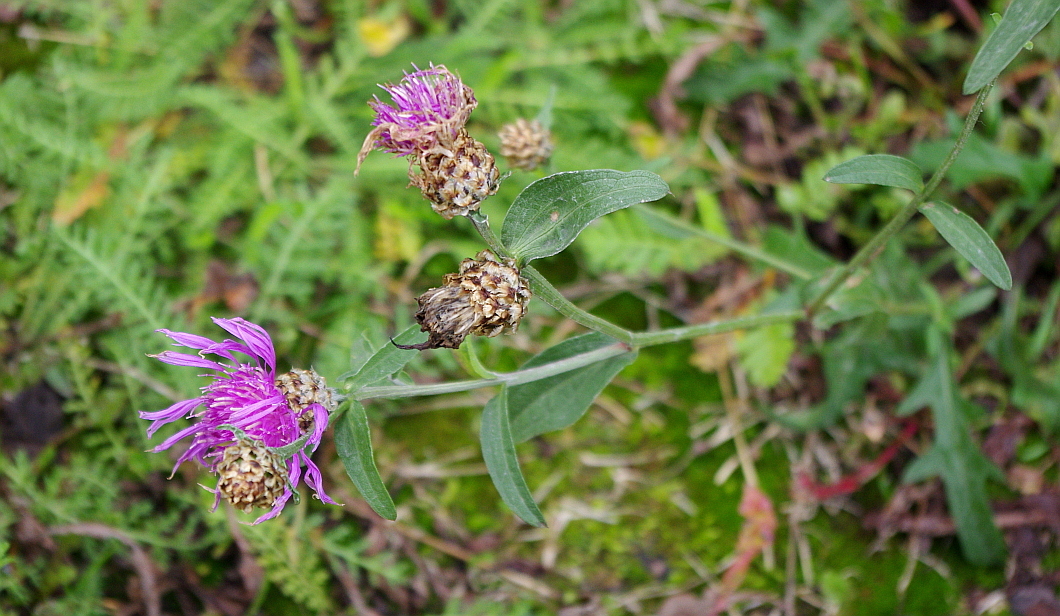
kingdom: Plantae
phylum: Tracheophyta
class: Magnoliopsida
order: Asterales
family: Asteraceae
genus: Centaurea
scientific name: Centaurea jacea
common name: Brown knapweed
